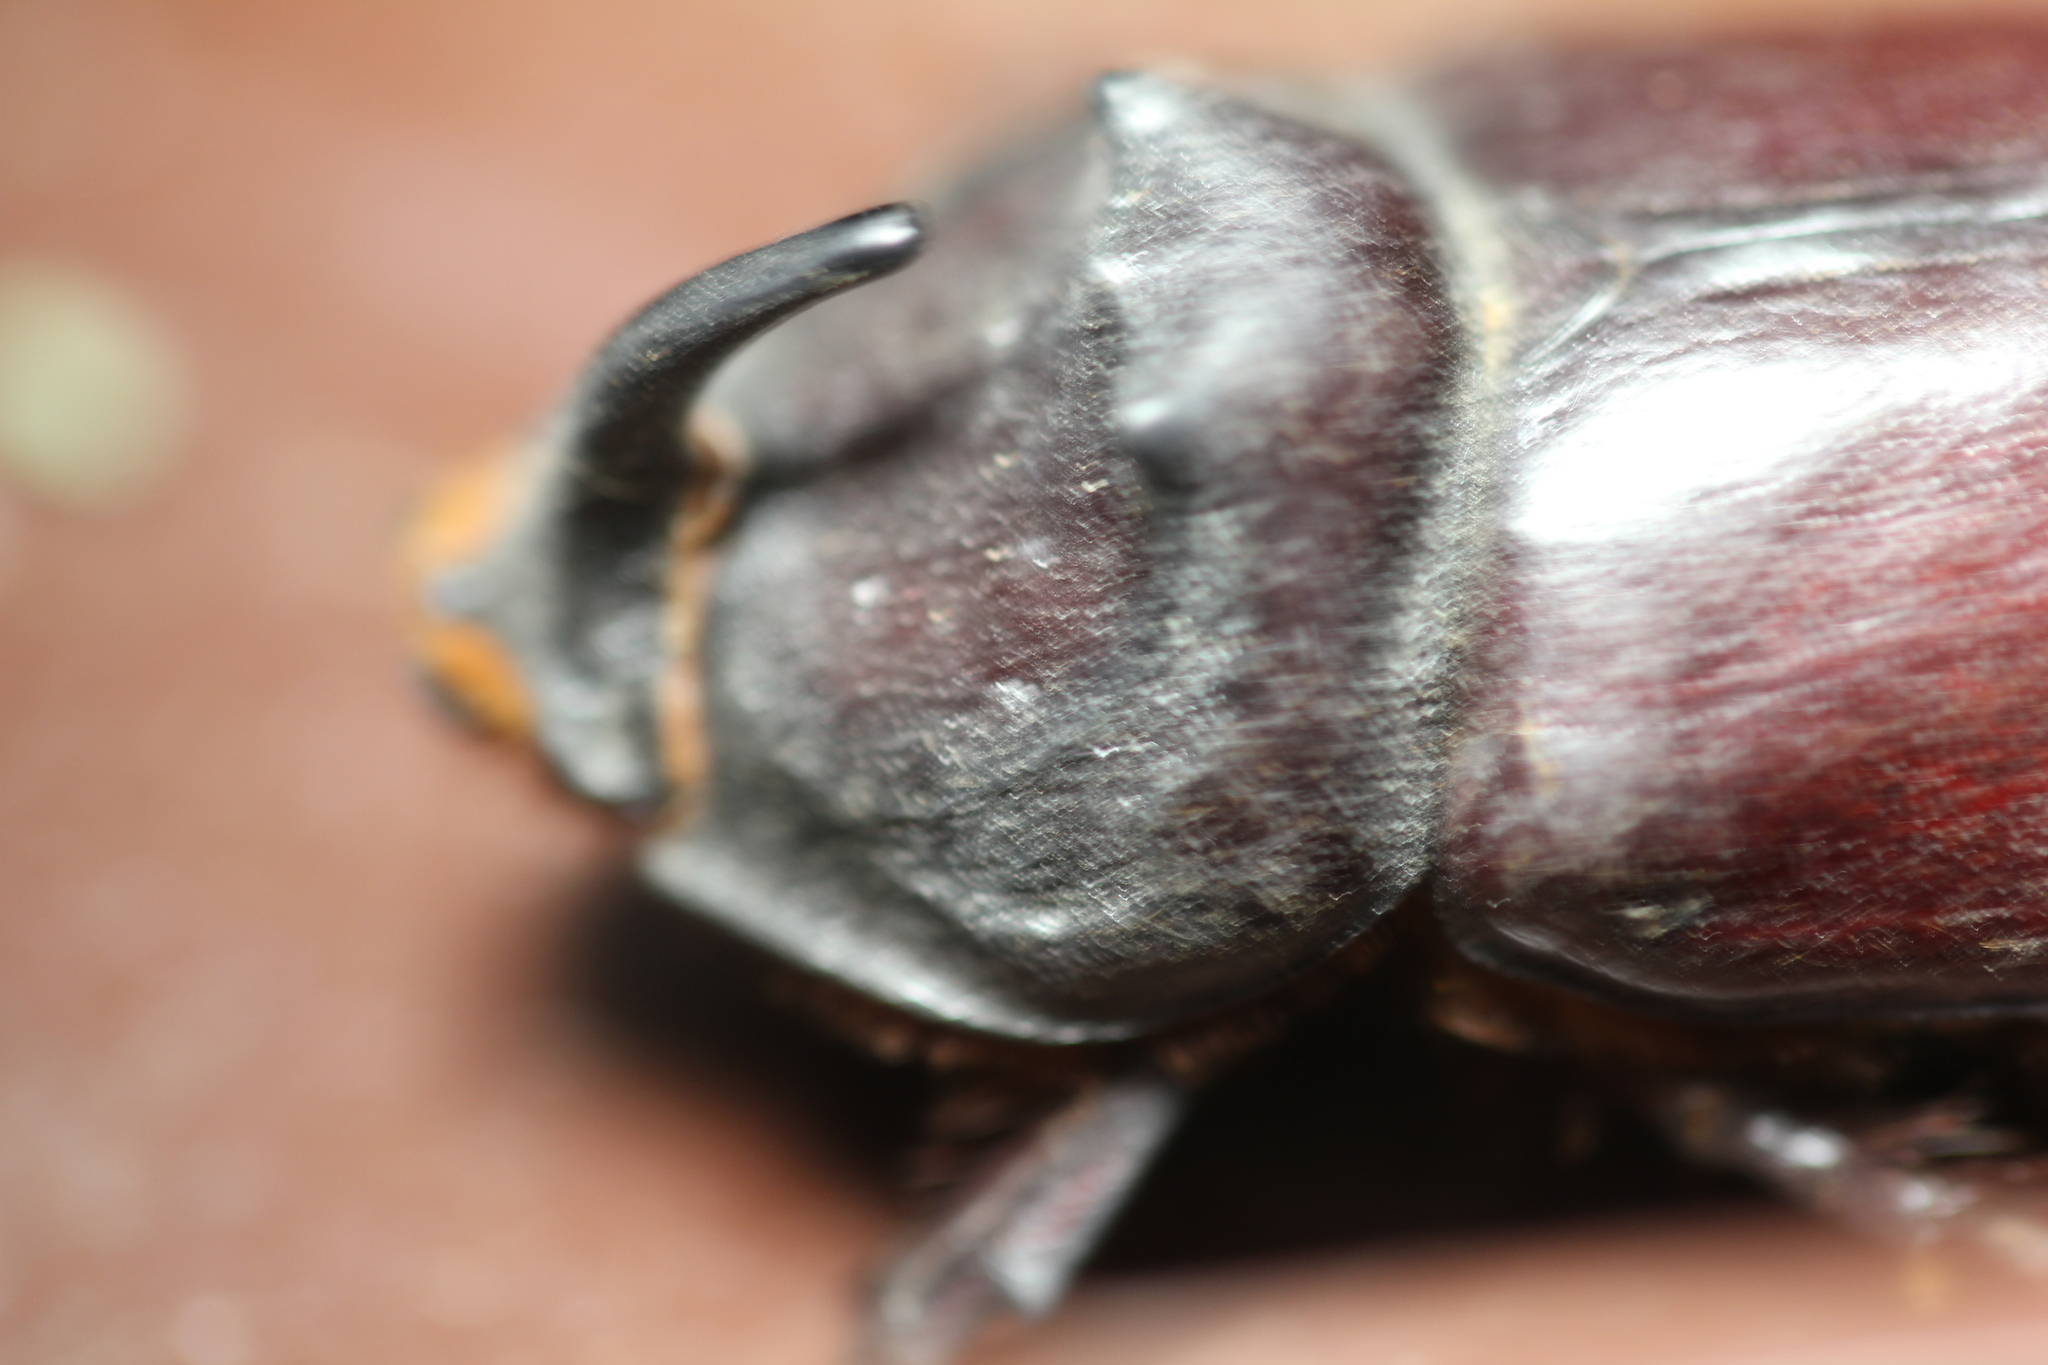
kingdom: Animalia
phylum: Arthropoda
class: Insecta
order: Coleoptera
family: Scarabaeidae
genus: Oryctes
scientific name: Oryctes nasicornis
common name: European rhinoceros beetle
